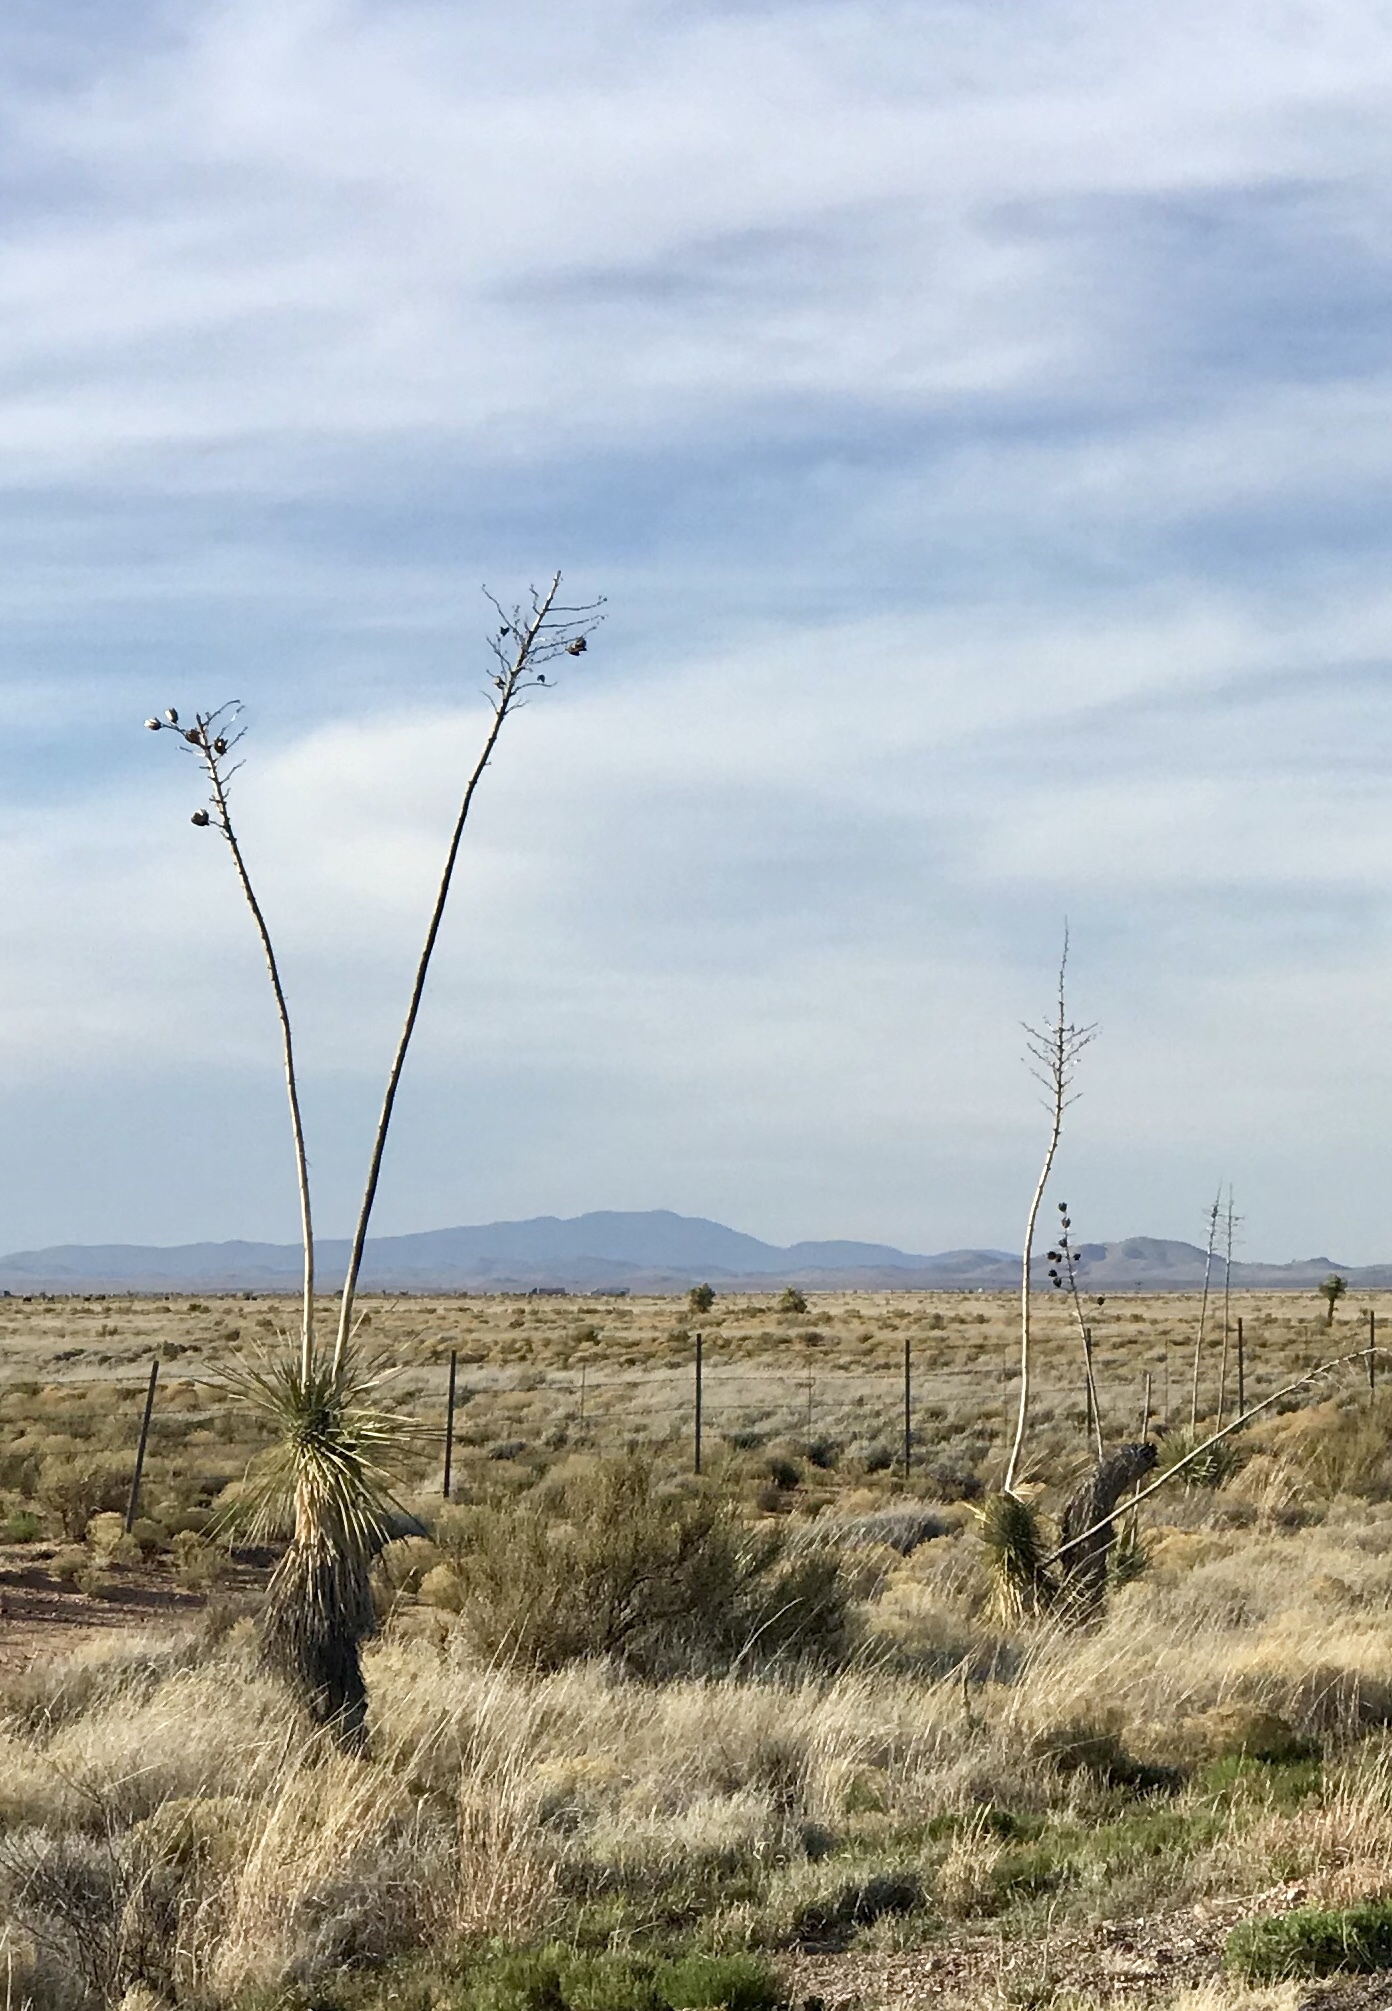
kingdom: Plantae
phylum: Tracheophyta
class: Liliopsida
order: Asparagales
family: Asparagaceae
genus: Yucca
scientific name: Yucca elata
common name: Palmella
